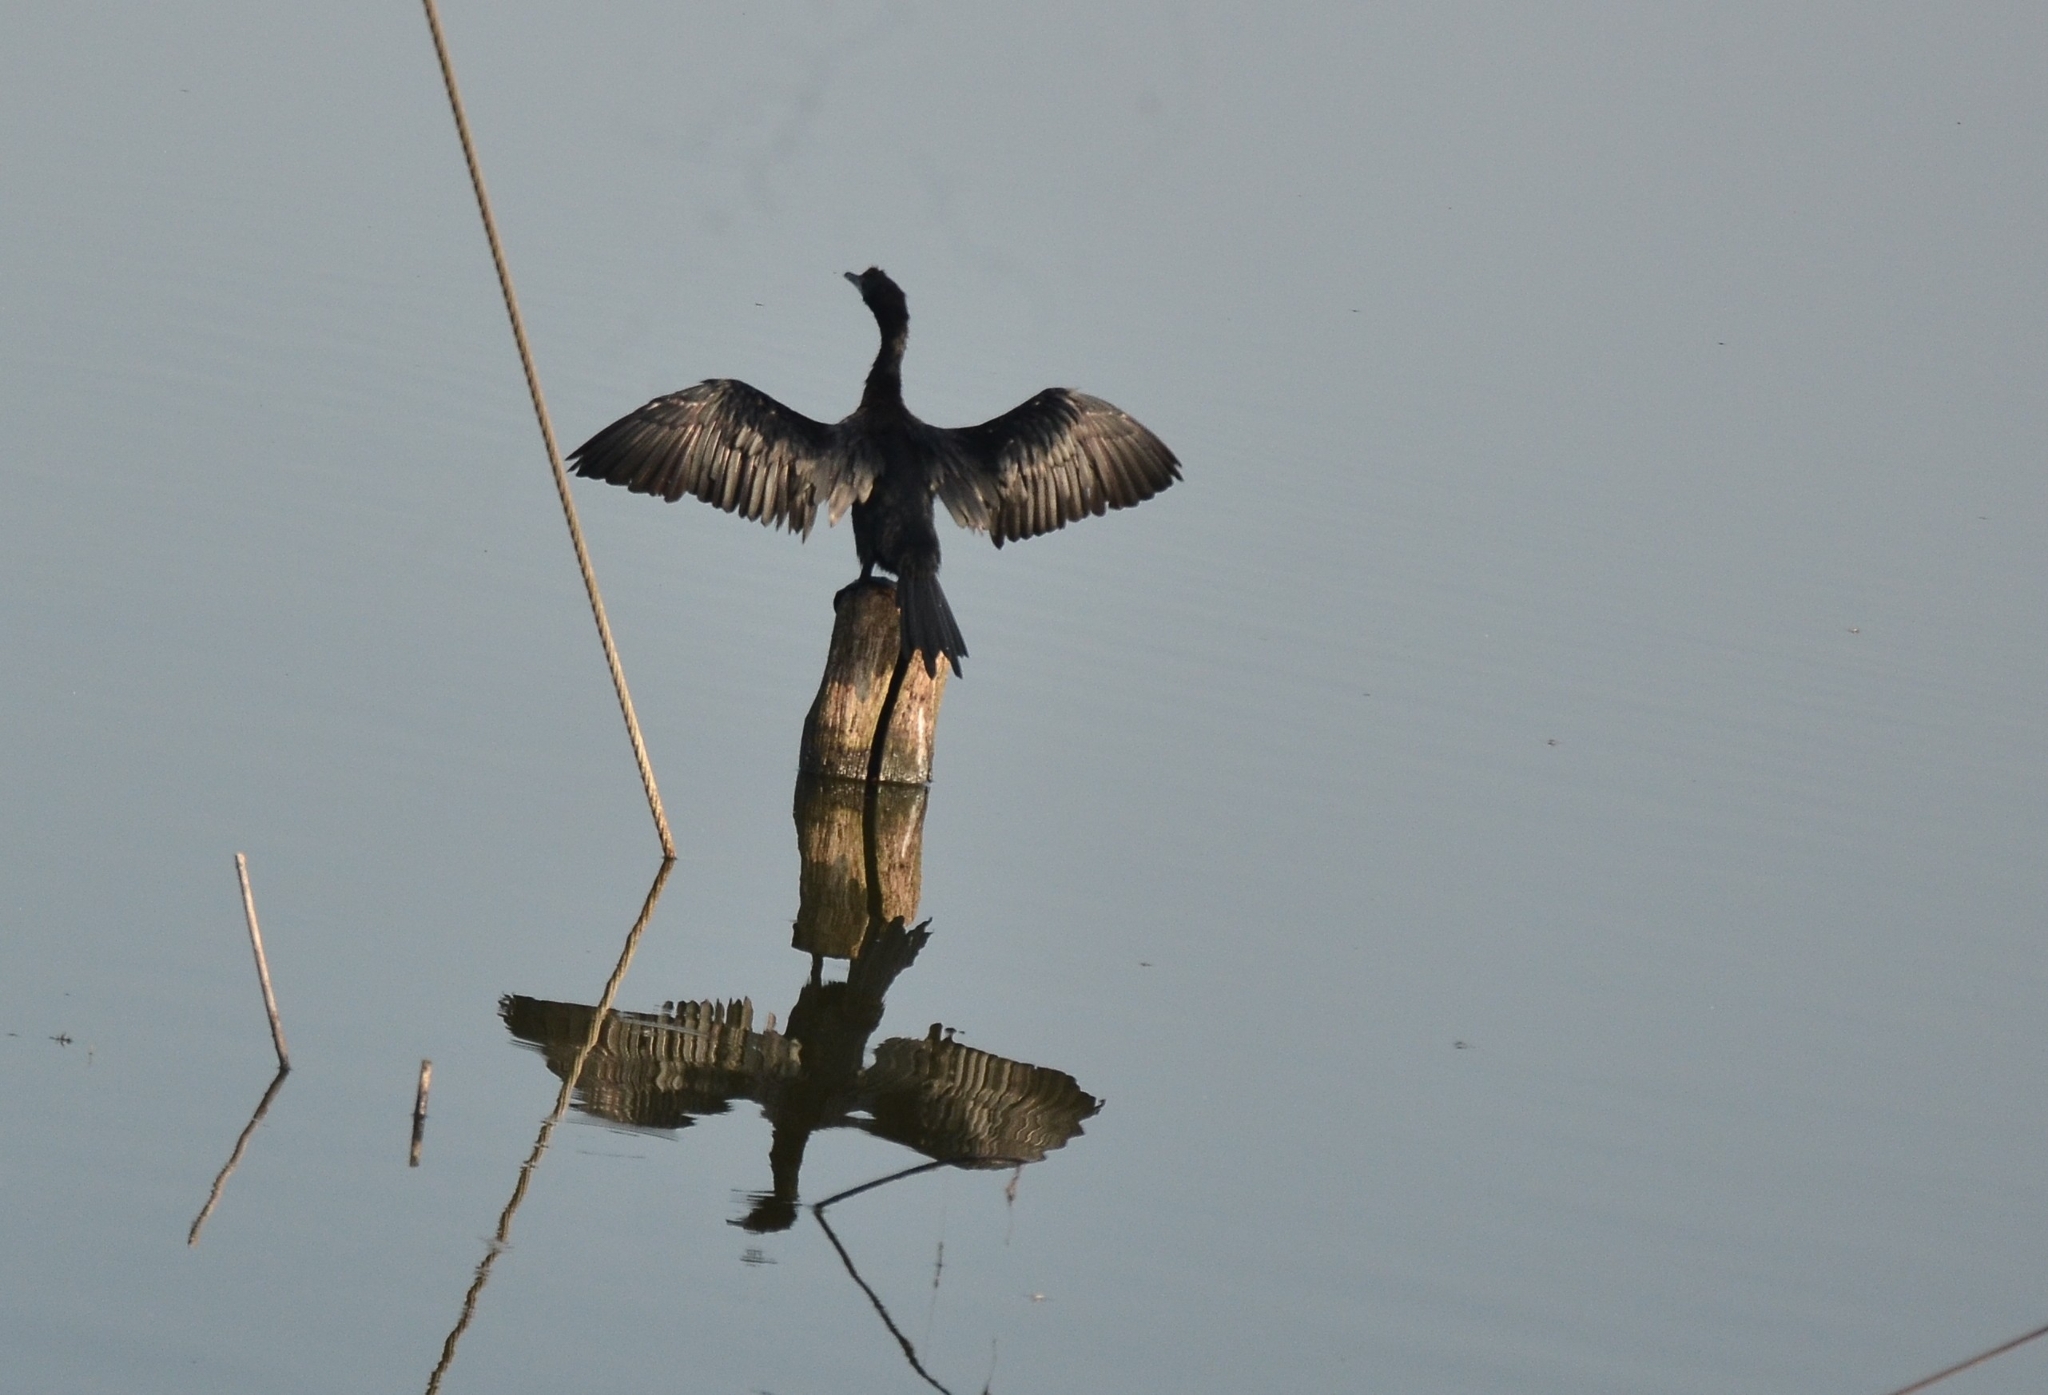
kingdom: Animalia
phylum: Chordata
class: Aves
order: Suliformes
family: Phalacrocoracidae
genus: Microcarbo
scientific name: Microcarbo niger
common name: Little cormorant
